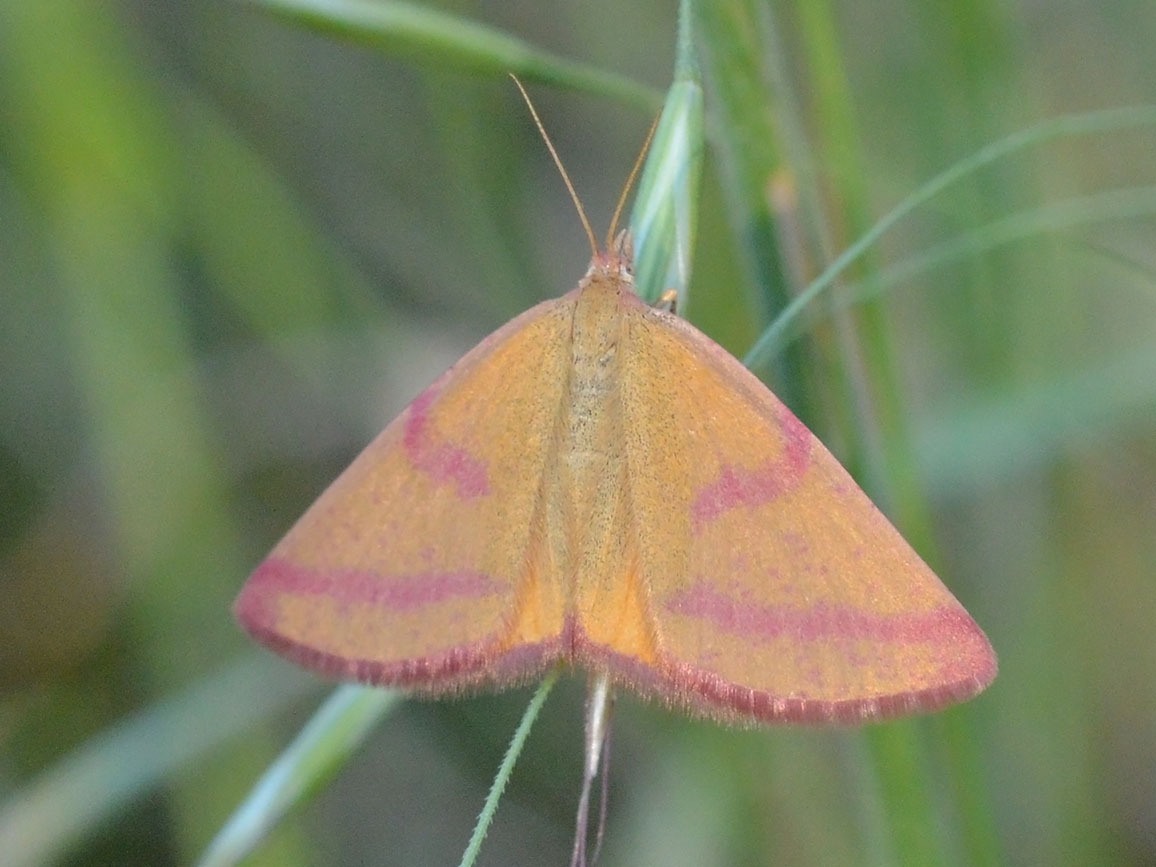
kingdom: Animalia
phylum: Arthropoda
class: Insecta
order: Lepidoptera
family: Geometridae
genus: Lythria
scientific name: Lythria purpuraria
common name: Purple-barred yellow
